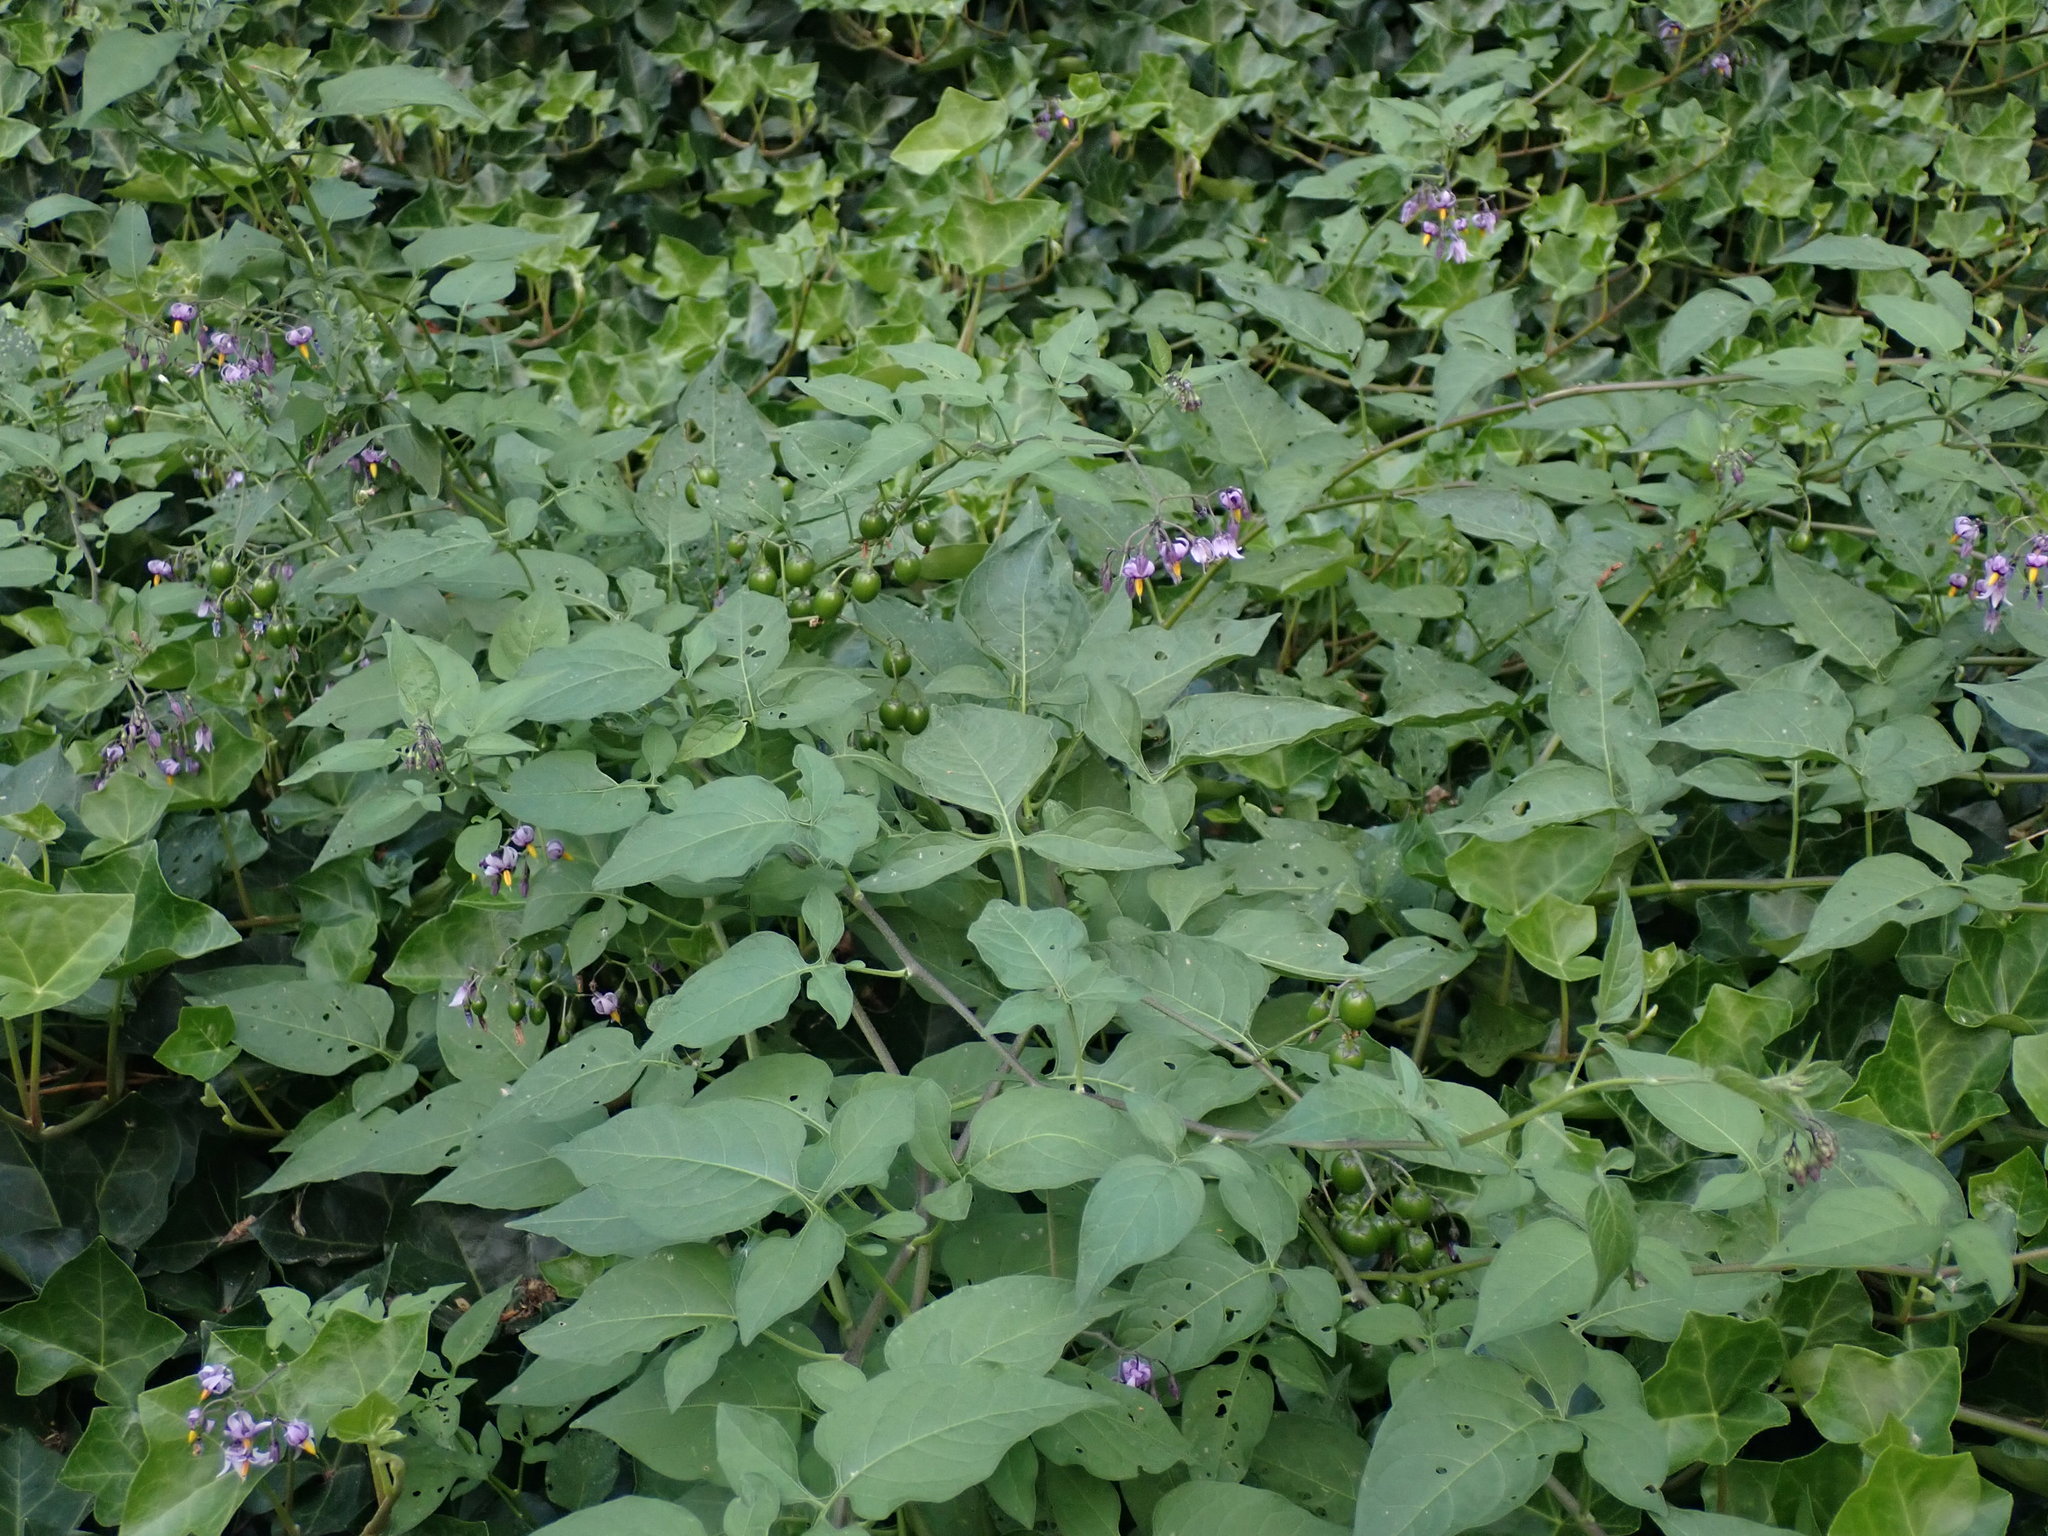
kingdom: Plantae
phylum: Tracheophyta
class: Magnoliopsida
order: Solanales
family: Solanaceae
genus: Solanum
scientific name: Solanum dulcamara
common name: Climbing nightshade
